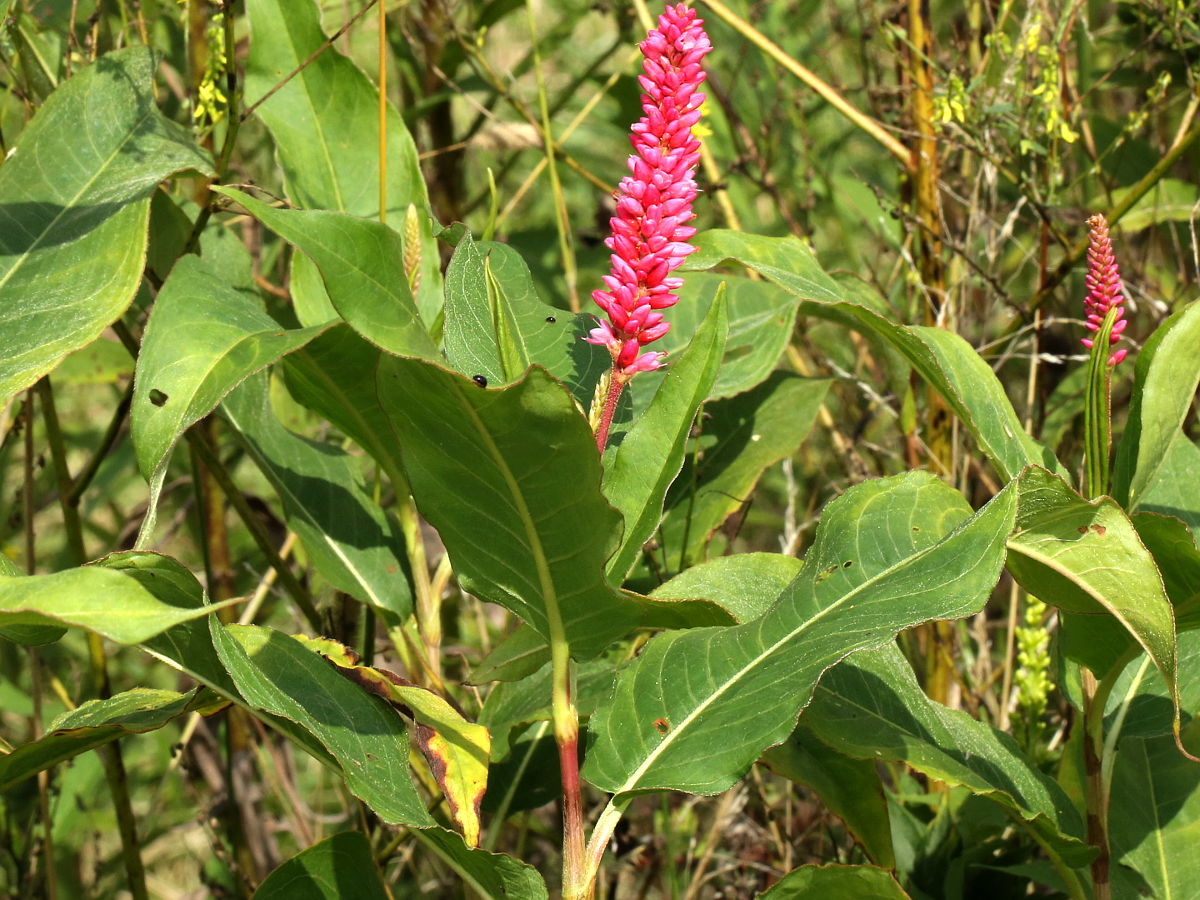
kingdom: Plantae
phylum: Tracheophyta
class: Magnoliopsida
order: Caryophyllales
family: Polygonaceae
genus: Persicaria
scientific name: Persicaria amphibia
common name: Amphibious bistort
